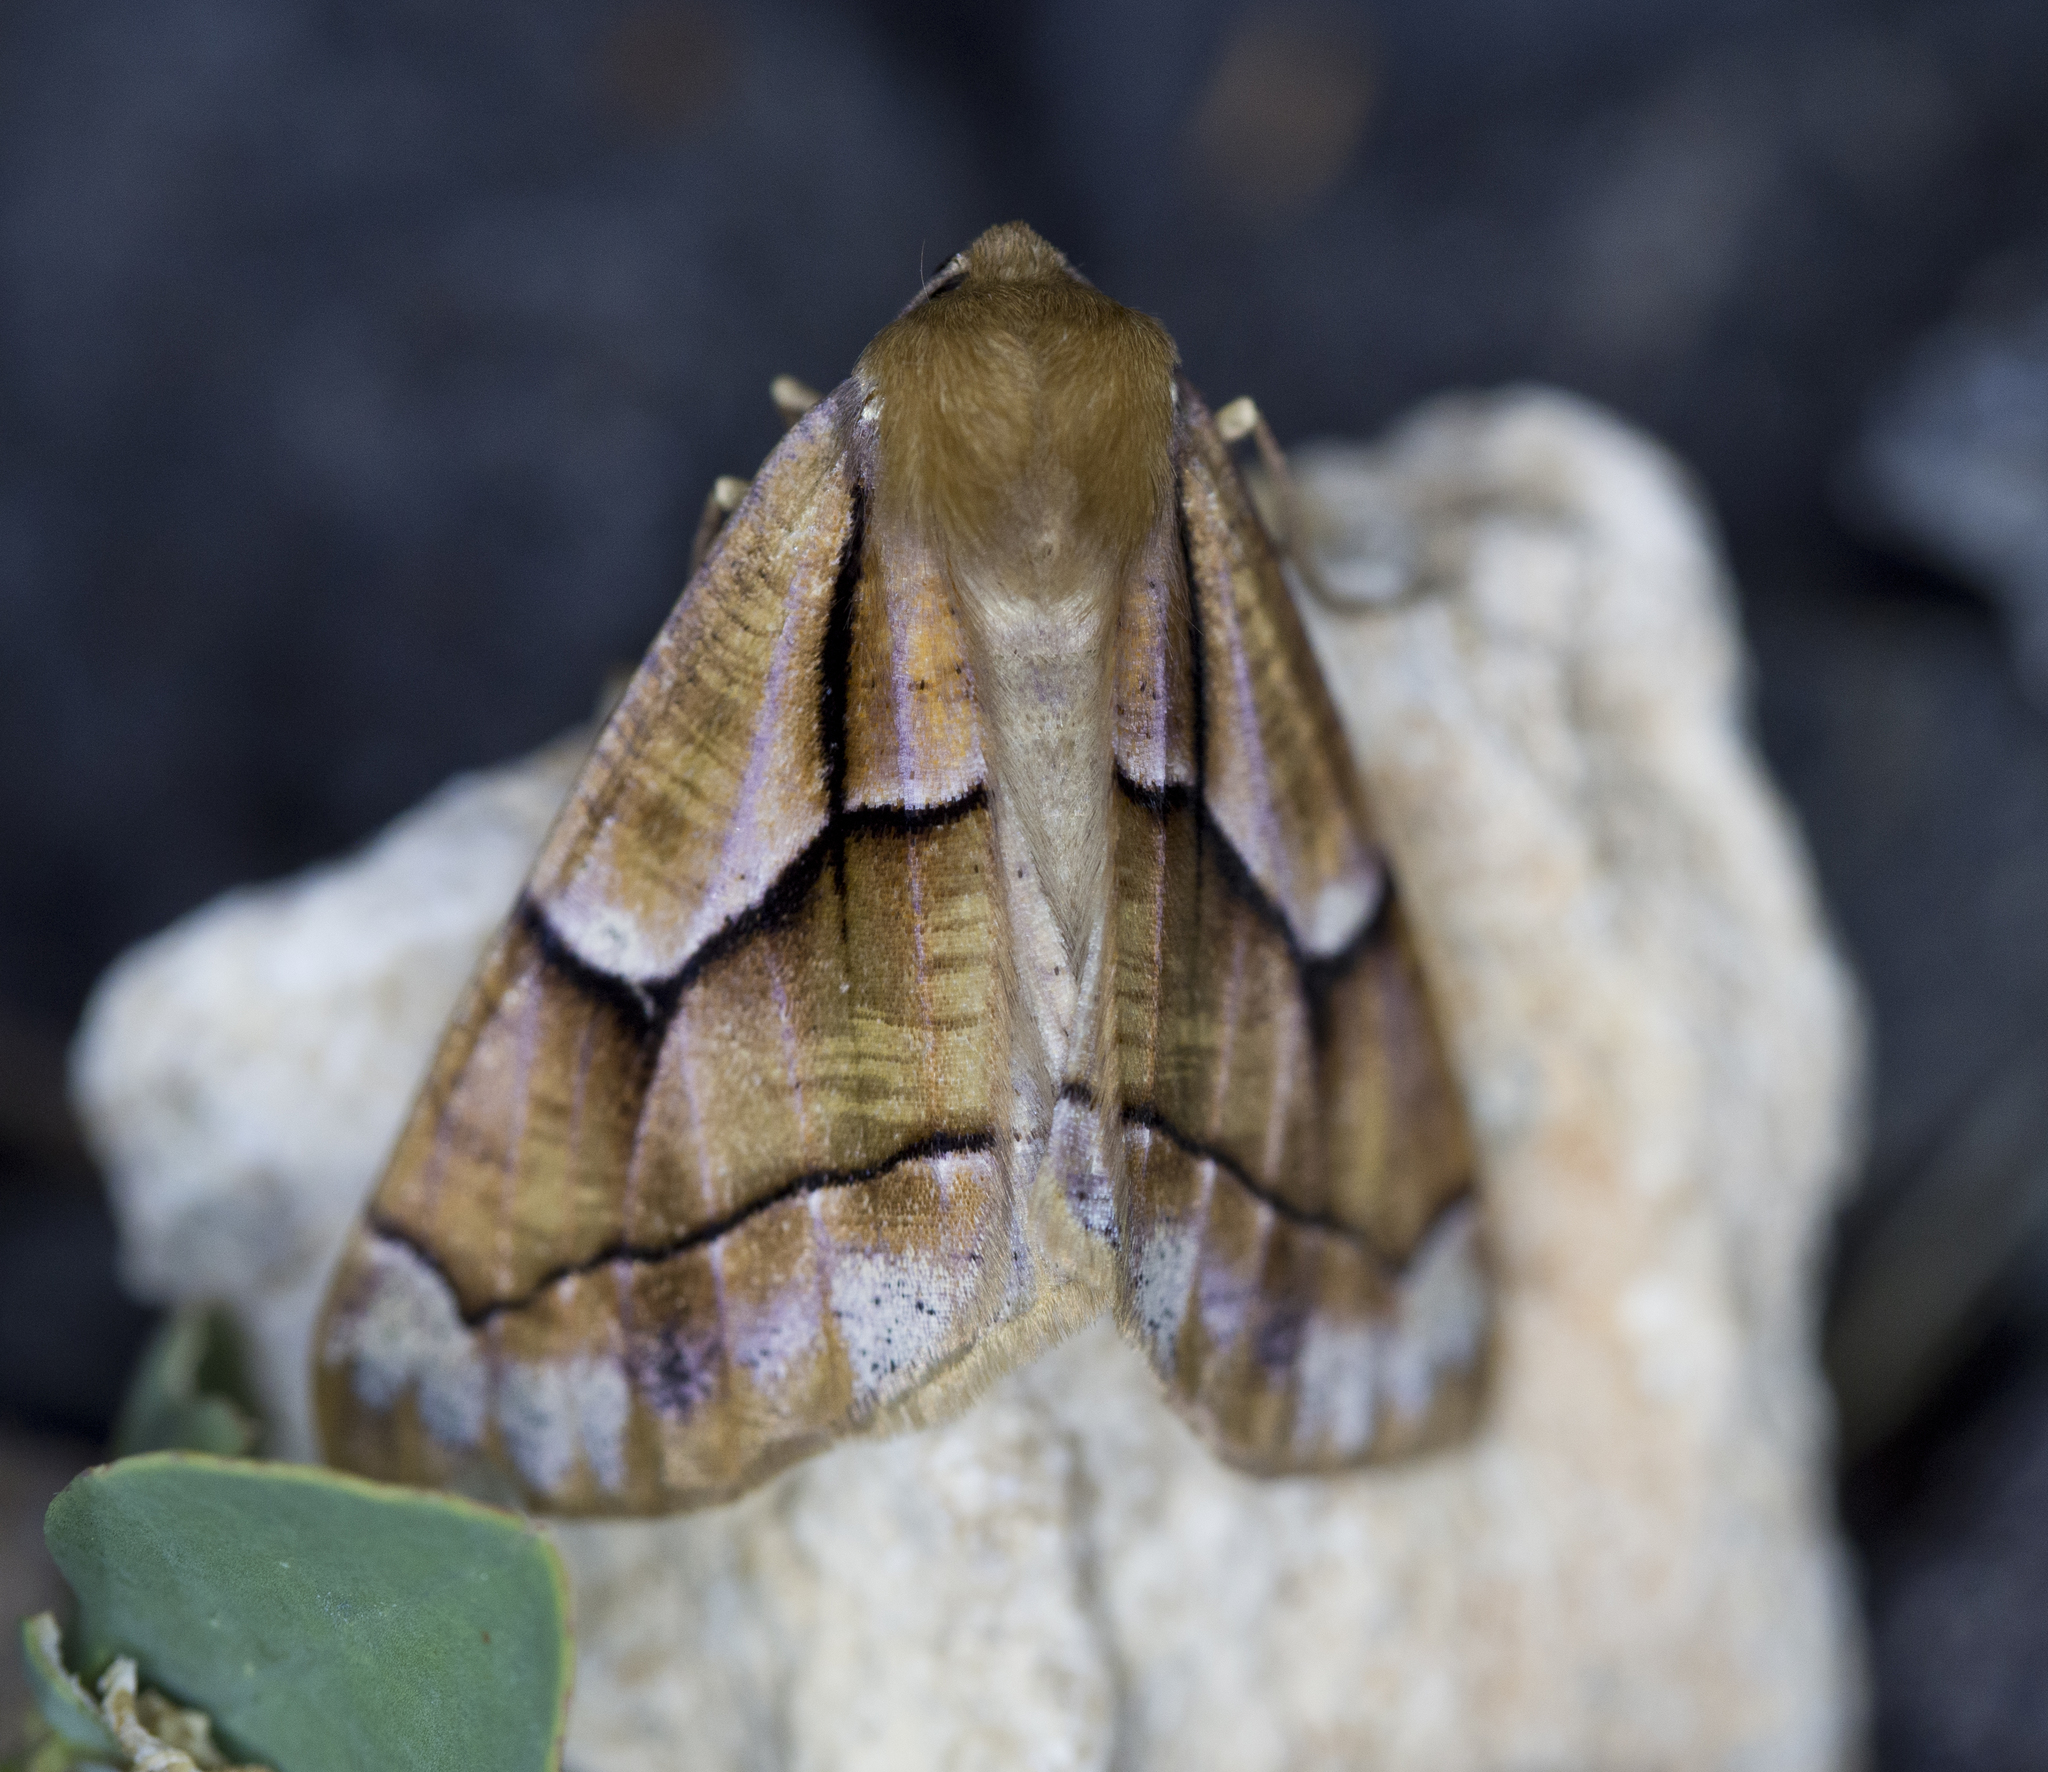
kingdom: Animalia
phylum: Arthropoda
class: Insecta
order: Lepidoptera
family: Geometridae
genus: Snowia
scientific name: Snowia montanaria
